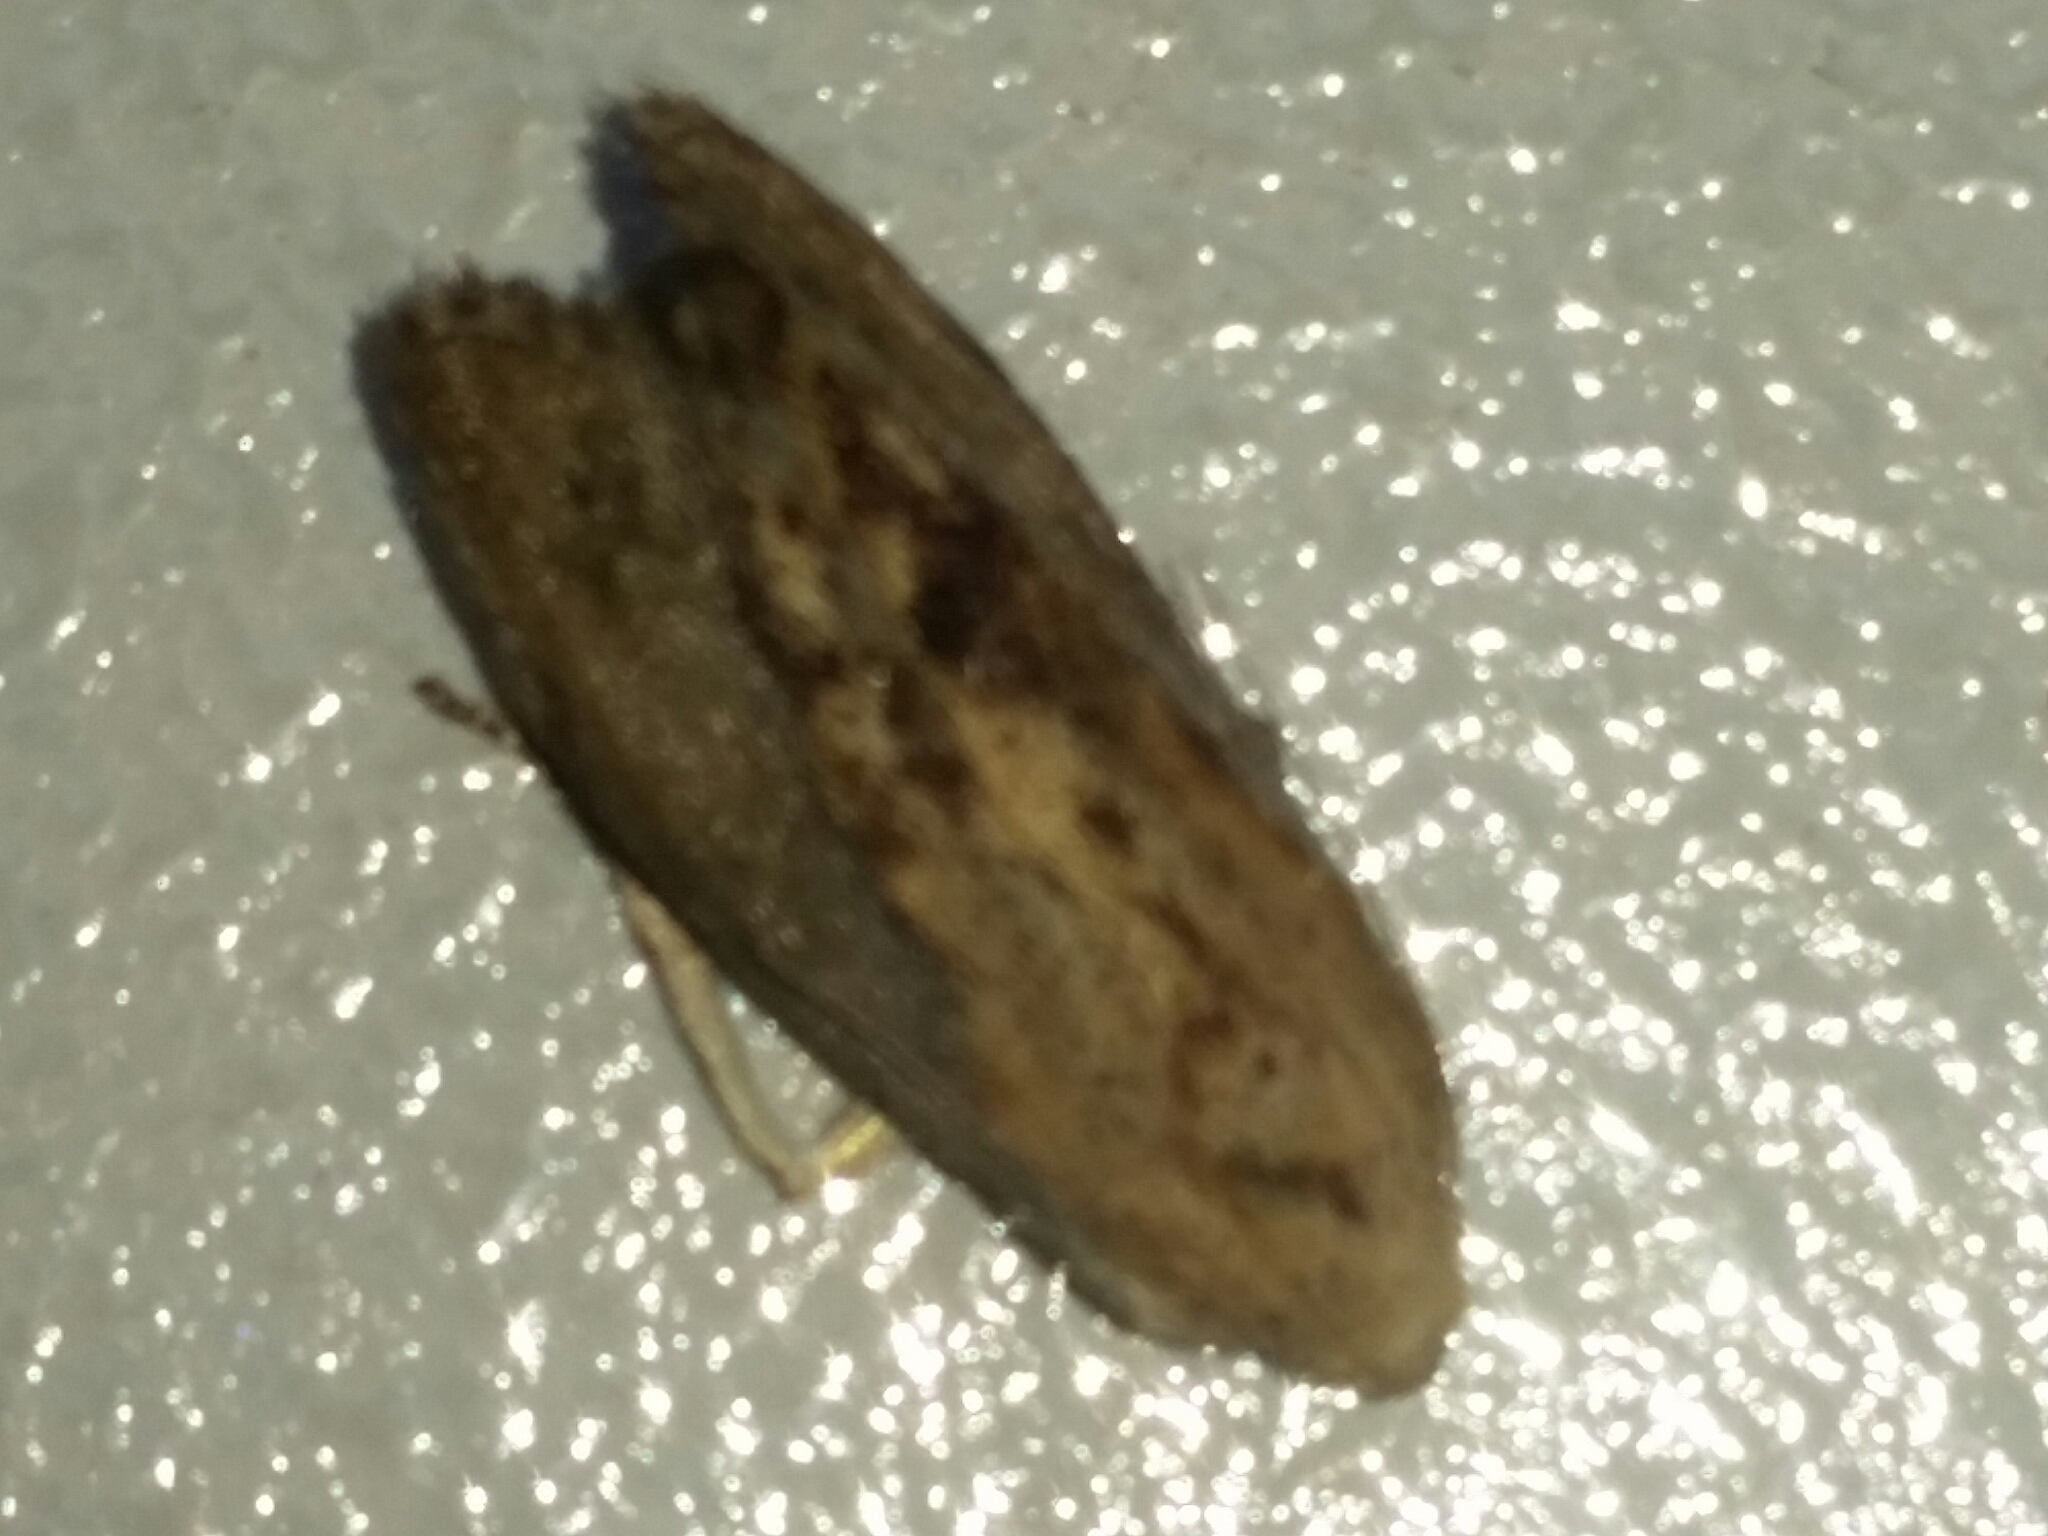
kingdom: Animalia
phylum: Arthropoda
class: Insecta
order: Lepidoptera
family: Pyralidae
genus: Galleria
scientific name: Galleria mellonella
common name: Greater wax moth
